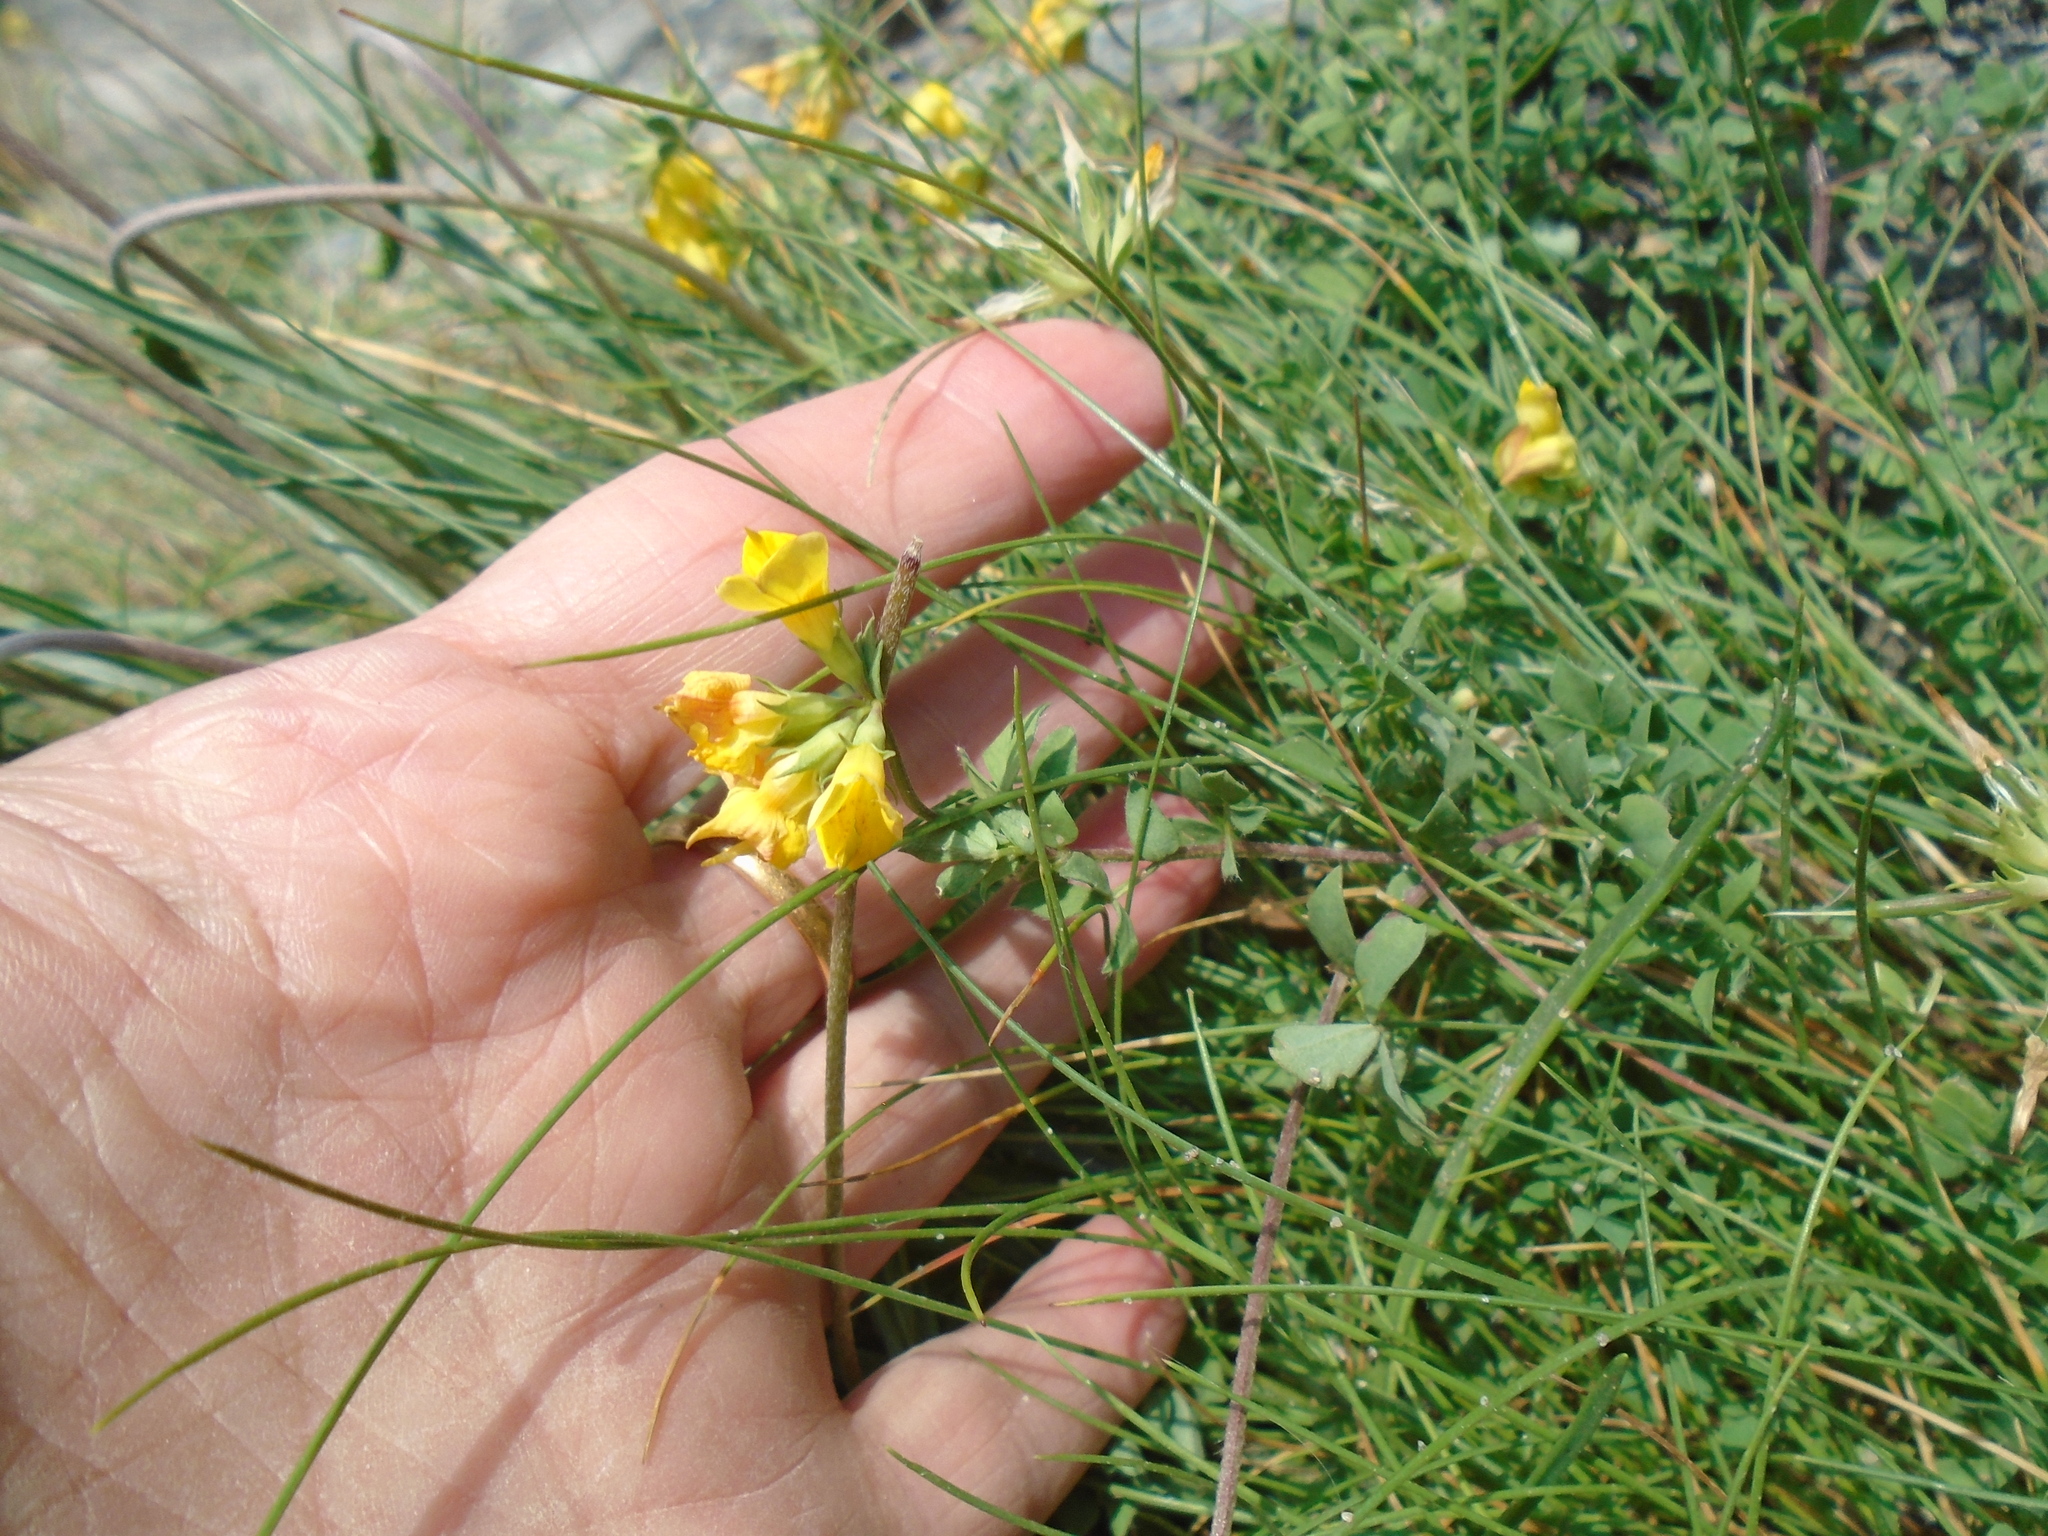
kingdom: Plantae
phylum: Tracheophyta
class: Magnoliopsida
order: Fabales
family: Fabaceae
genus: Lotus
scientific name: Lotus corniculatus
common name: Common bird's-foot-trefoil
